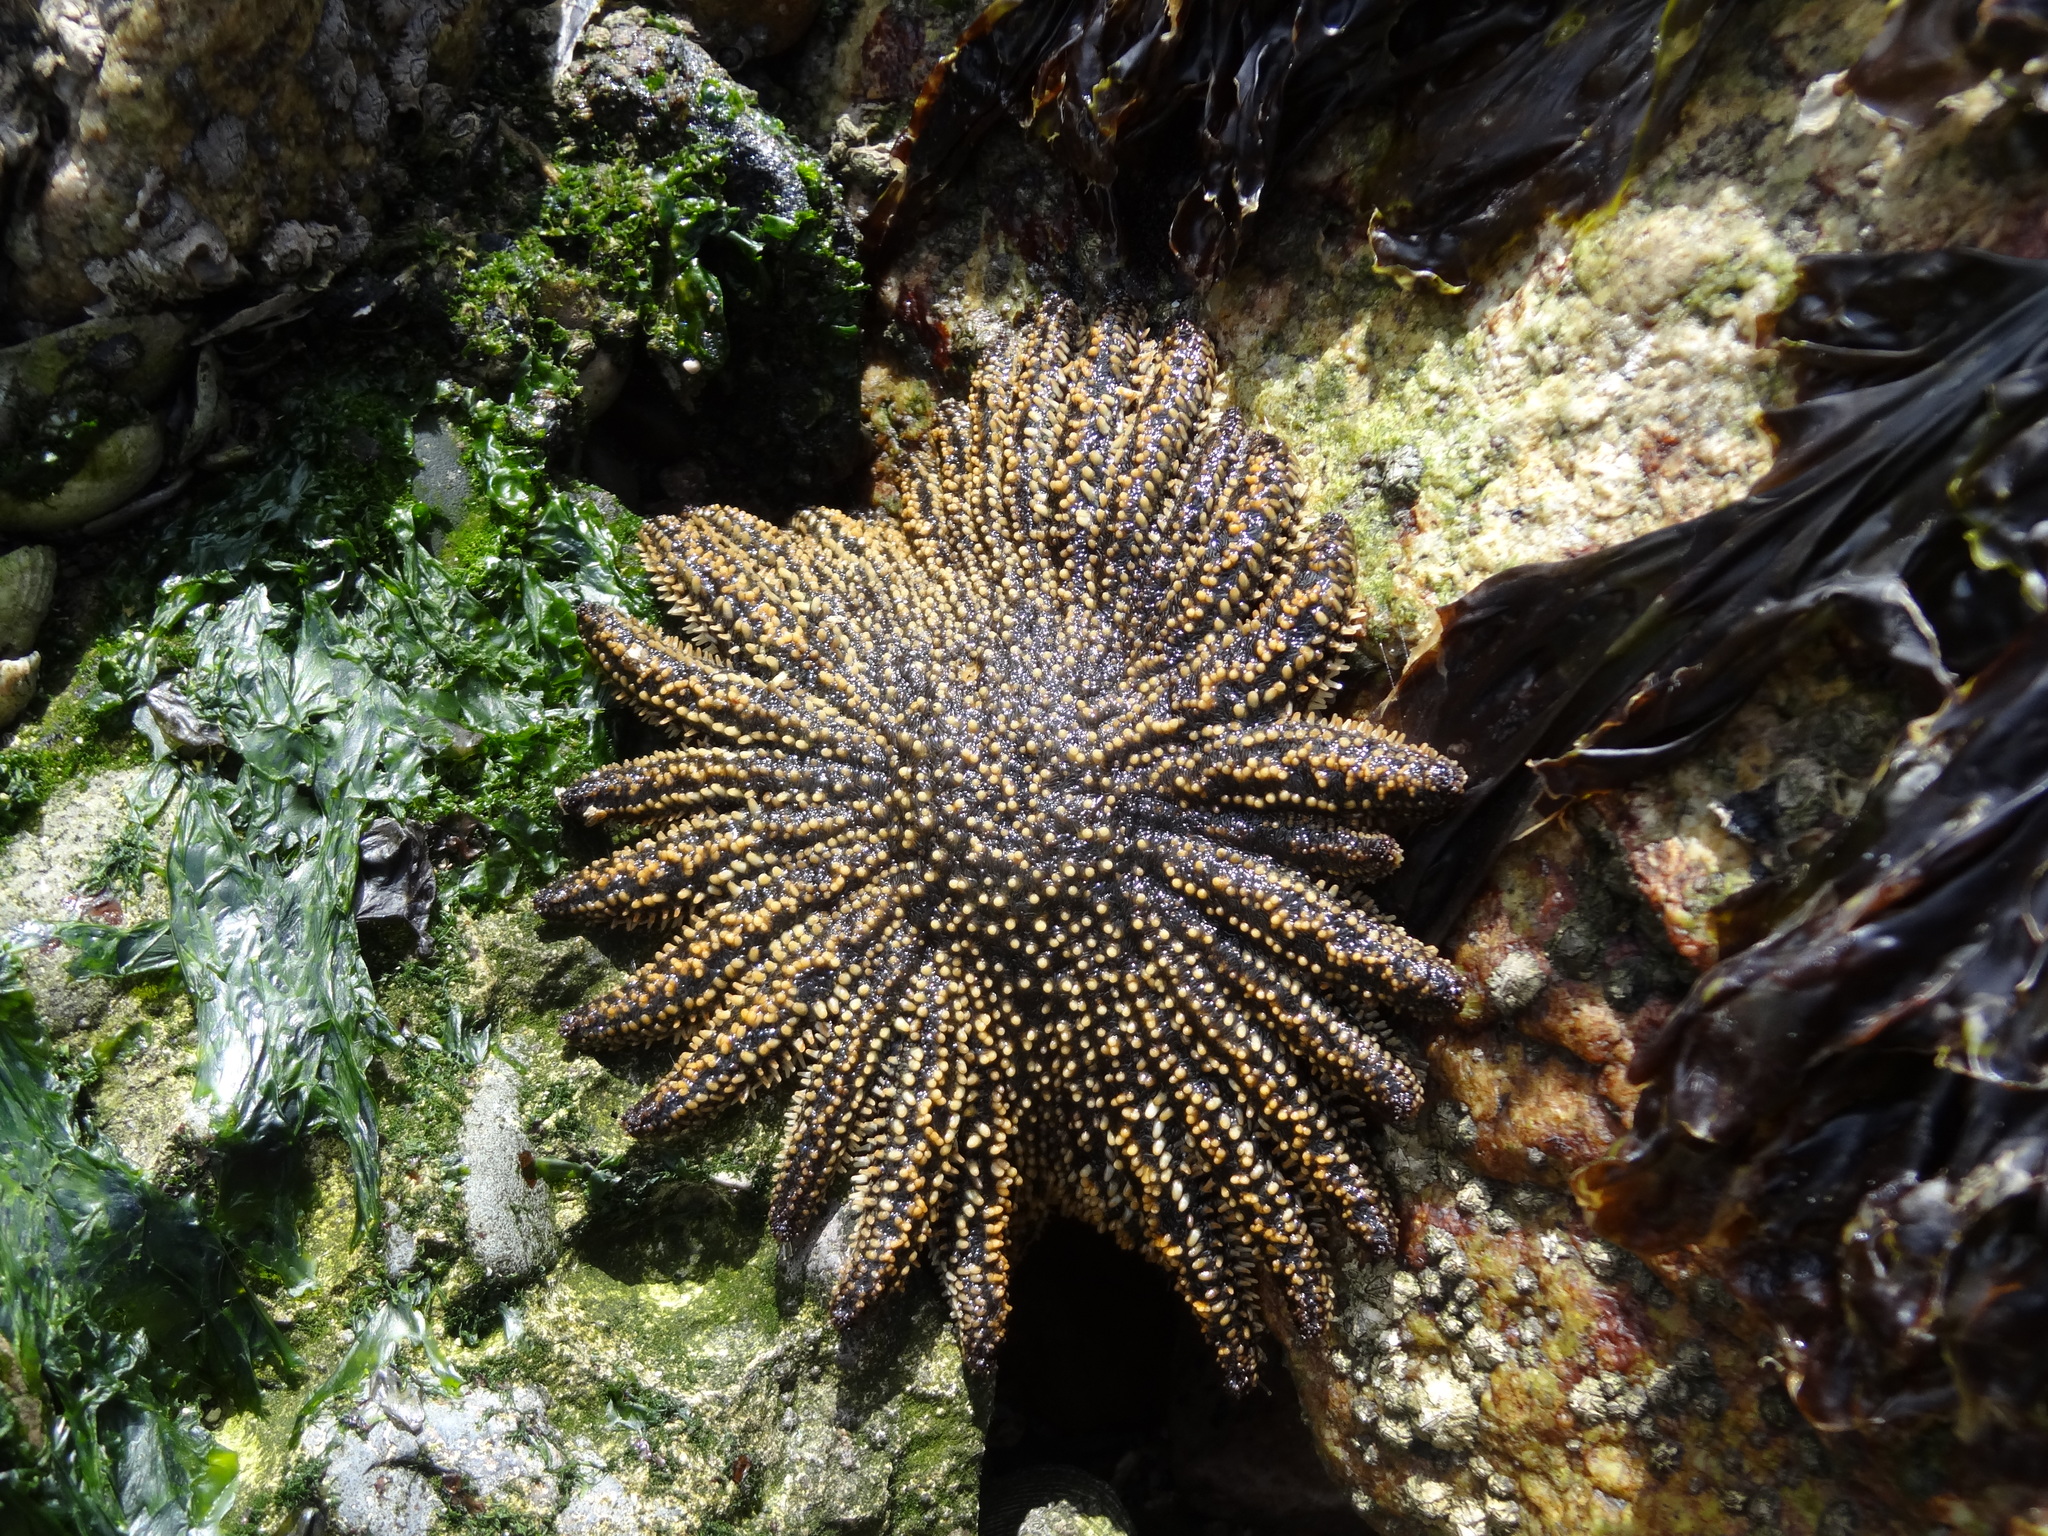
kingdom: Animalia
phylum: Echinodermata
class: Asteroidea
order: Forcipulatida
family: Heliasteridae
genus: Heliaster
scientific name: Heliaster helianthus
